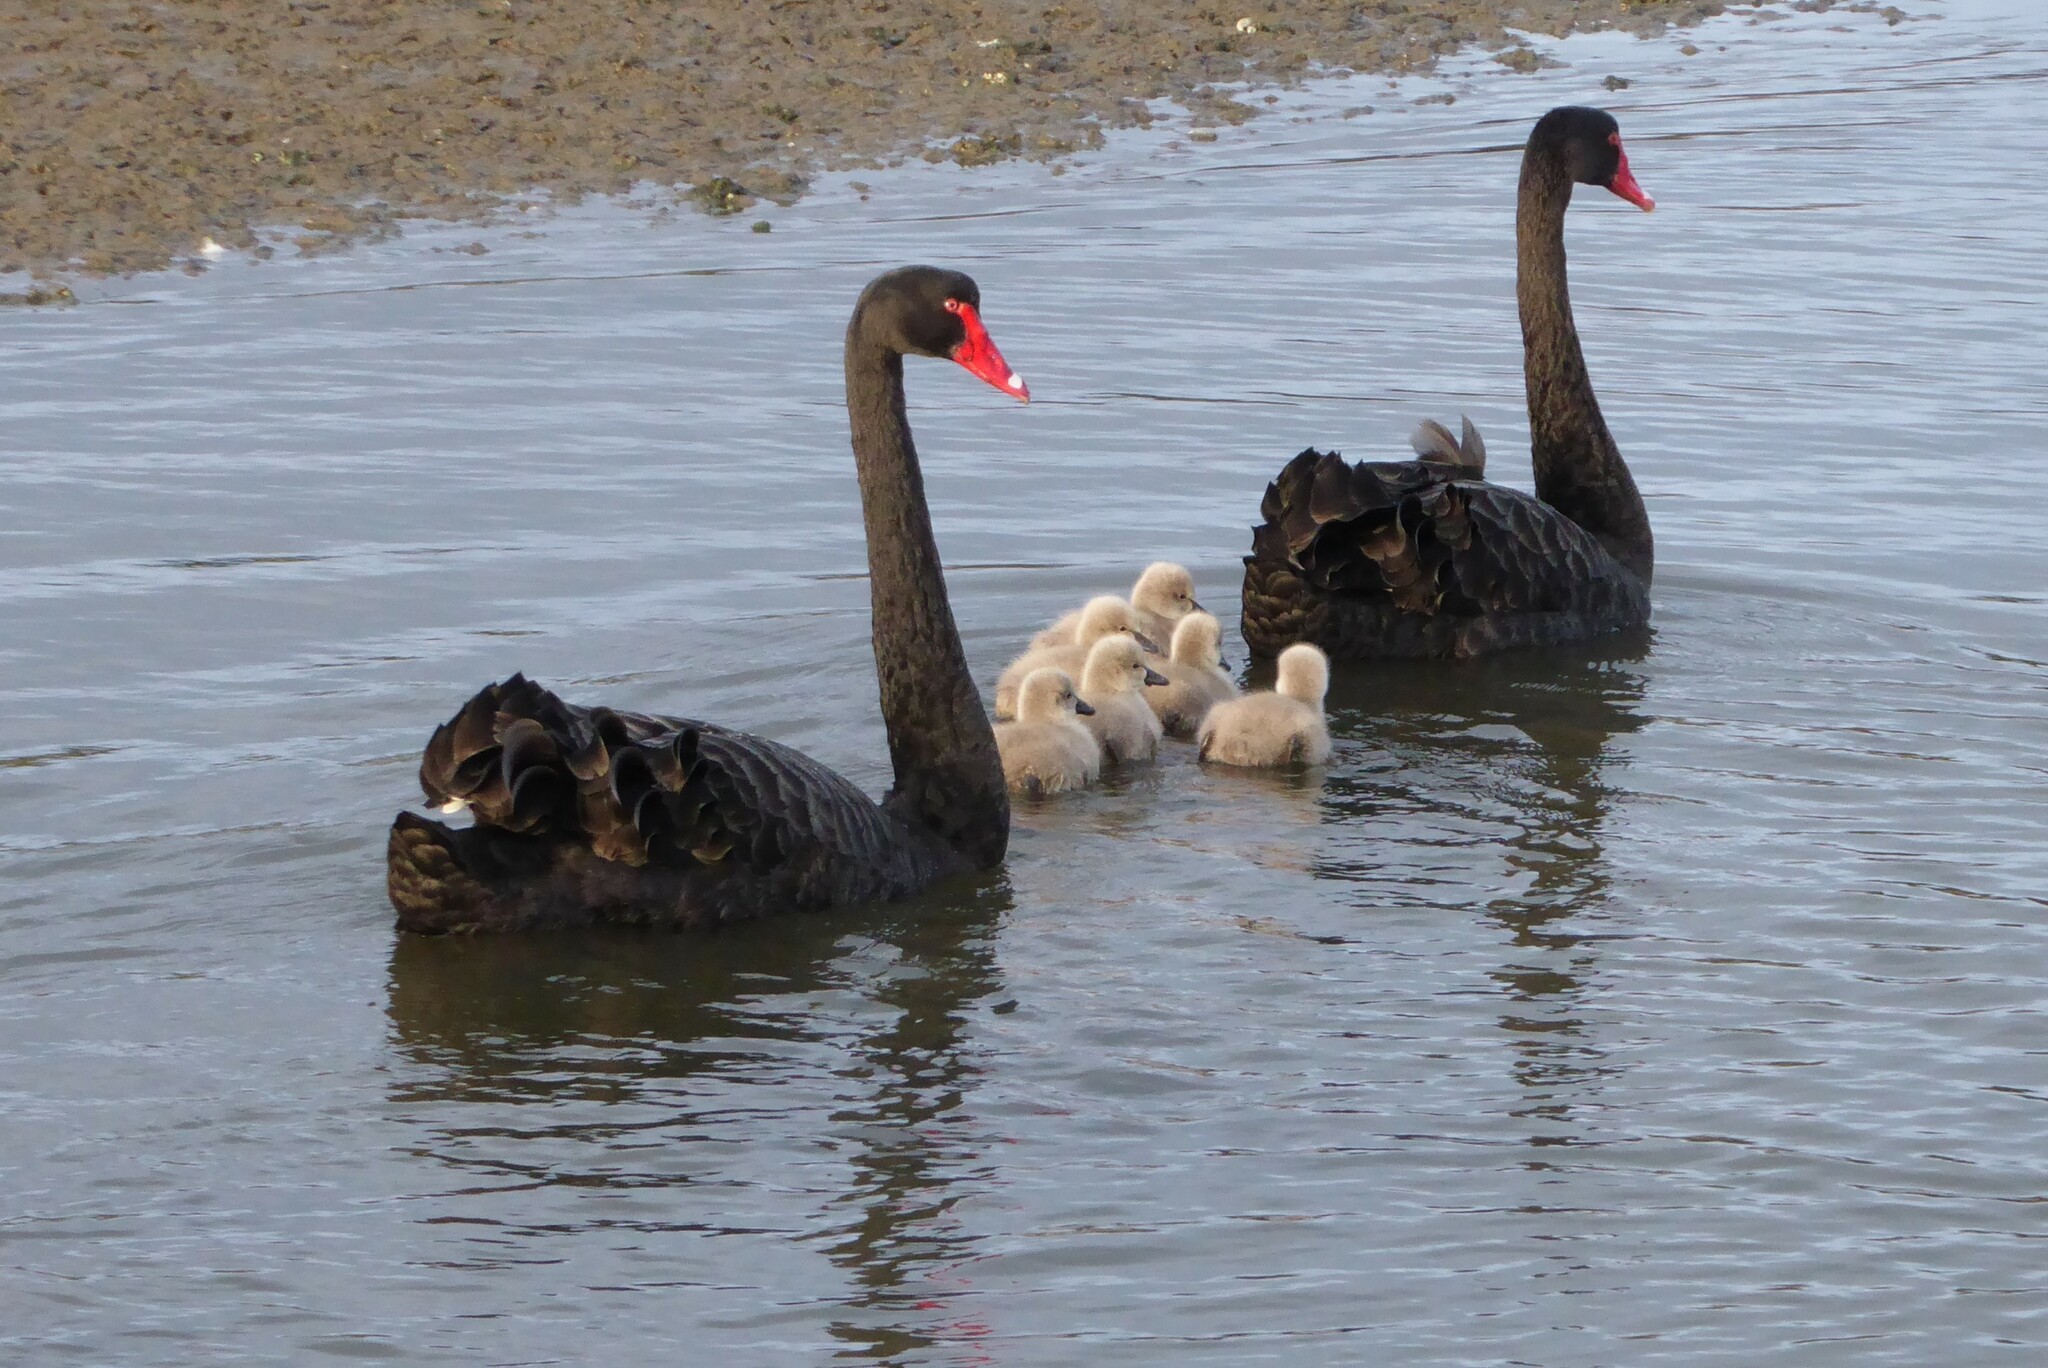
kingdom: Animalia
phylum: Chordata
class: Aves
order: Anseriformes
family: Anatidae
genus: Cygnus
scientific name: Cygnus atratus
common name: Black swan
